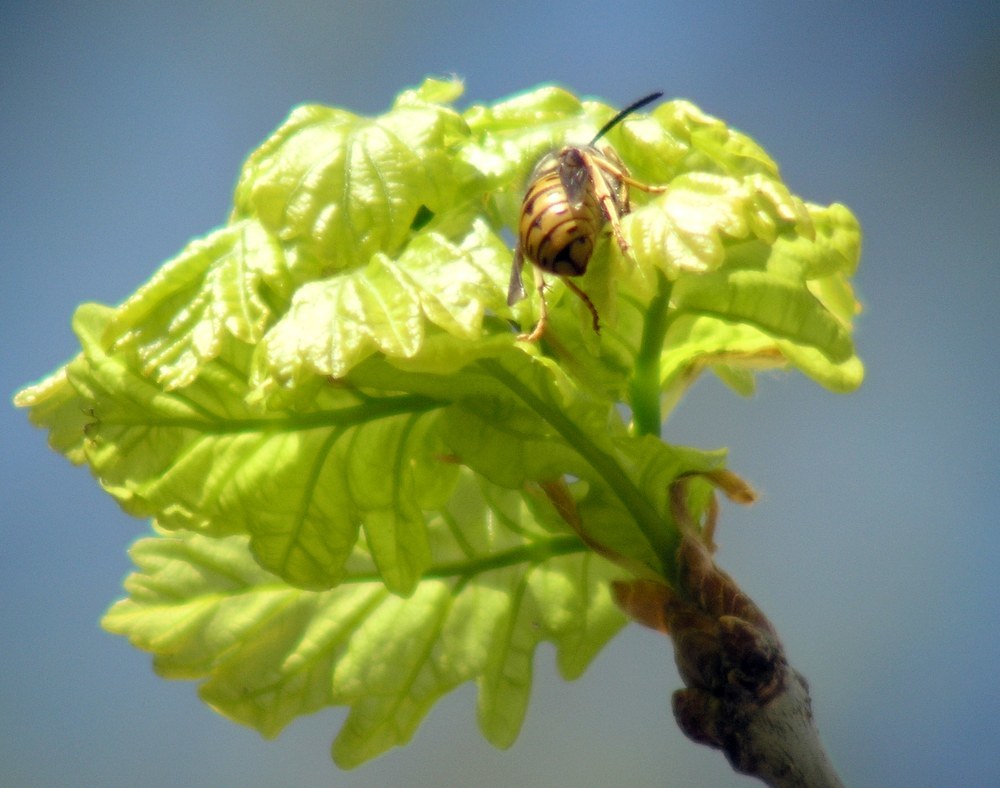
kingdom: Animalia
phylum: Arthropoda
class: Insecta
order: Hymenoptera
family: Vespidae
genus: Vespula
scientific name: Vespula germanica
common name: German wasp
